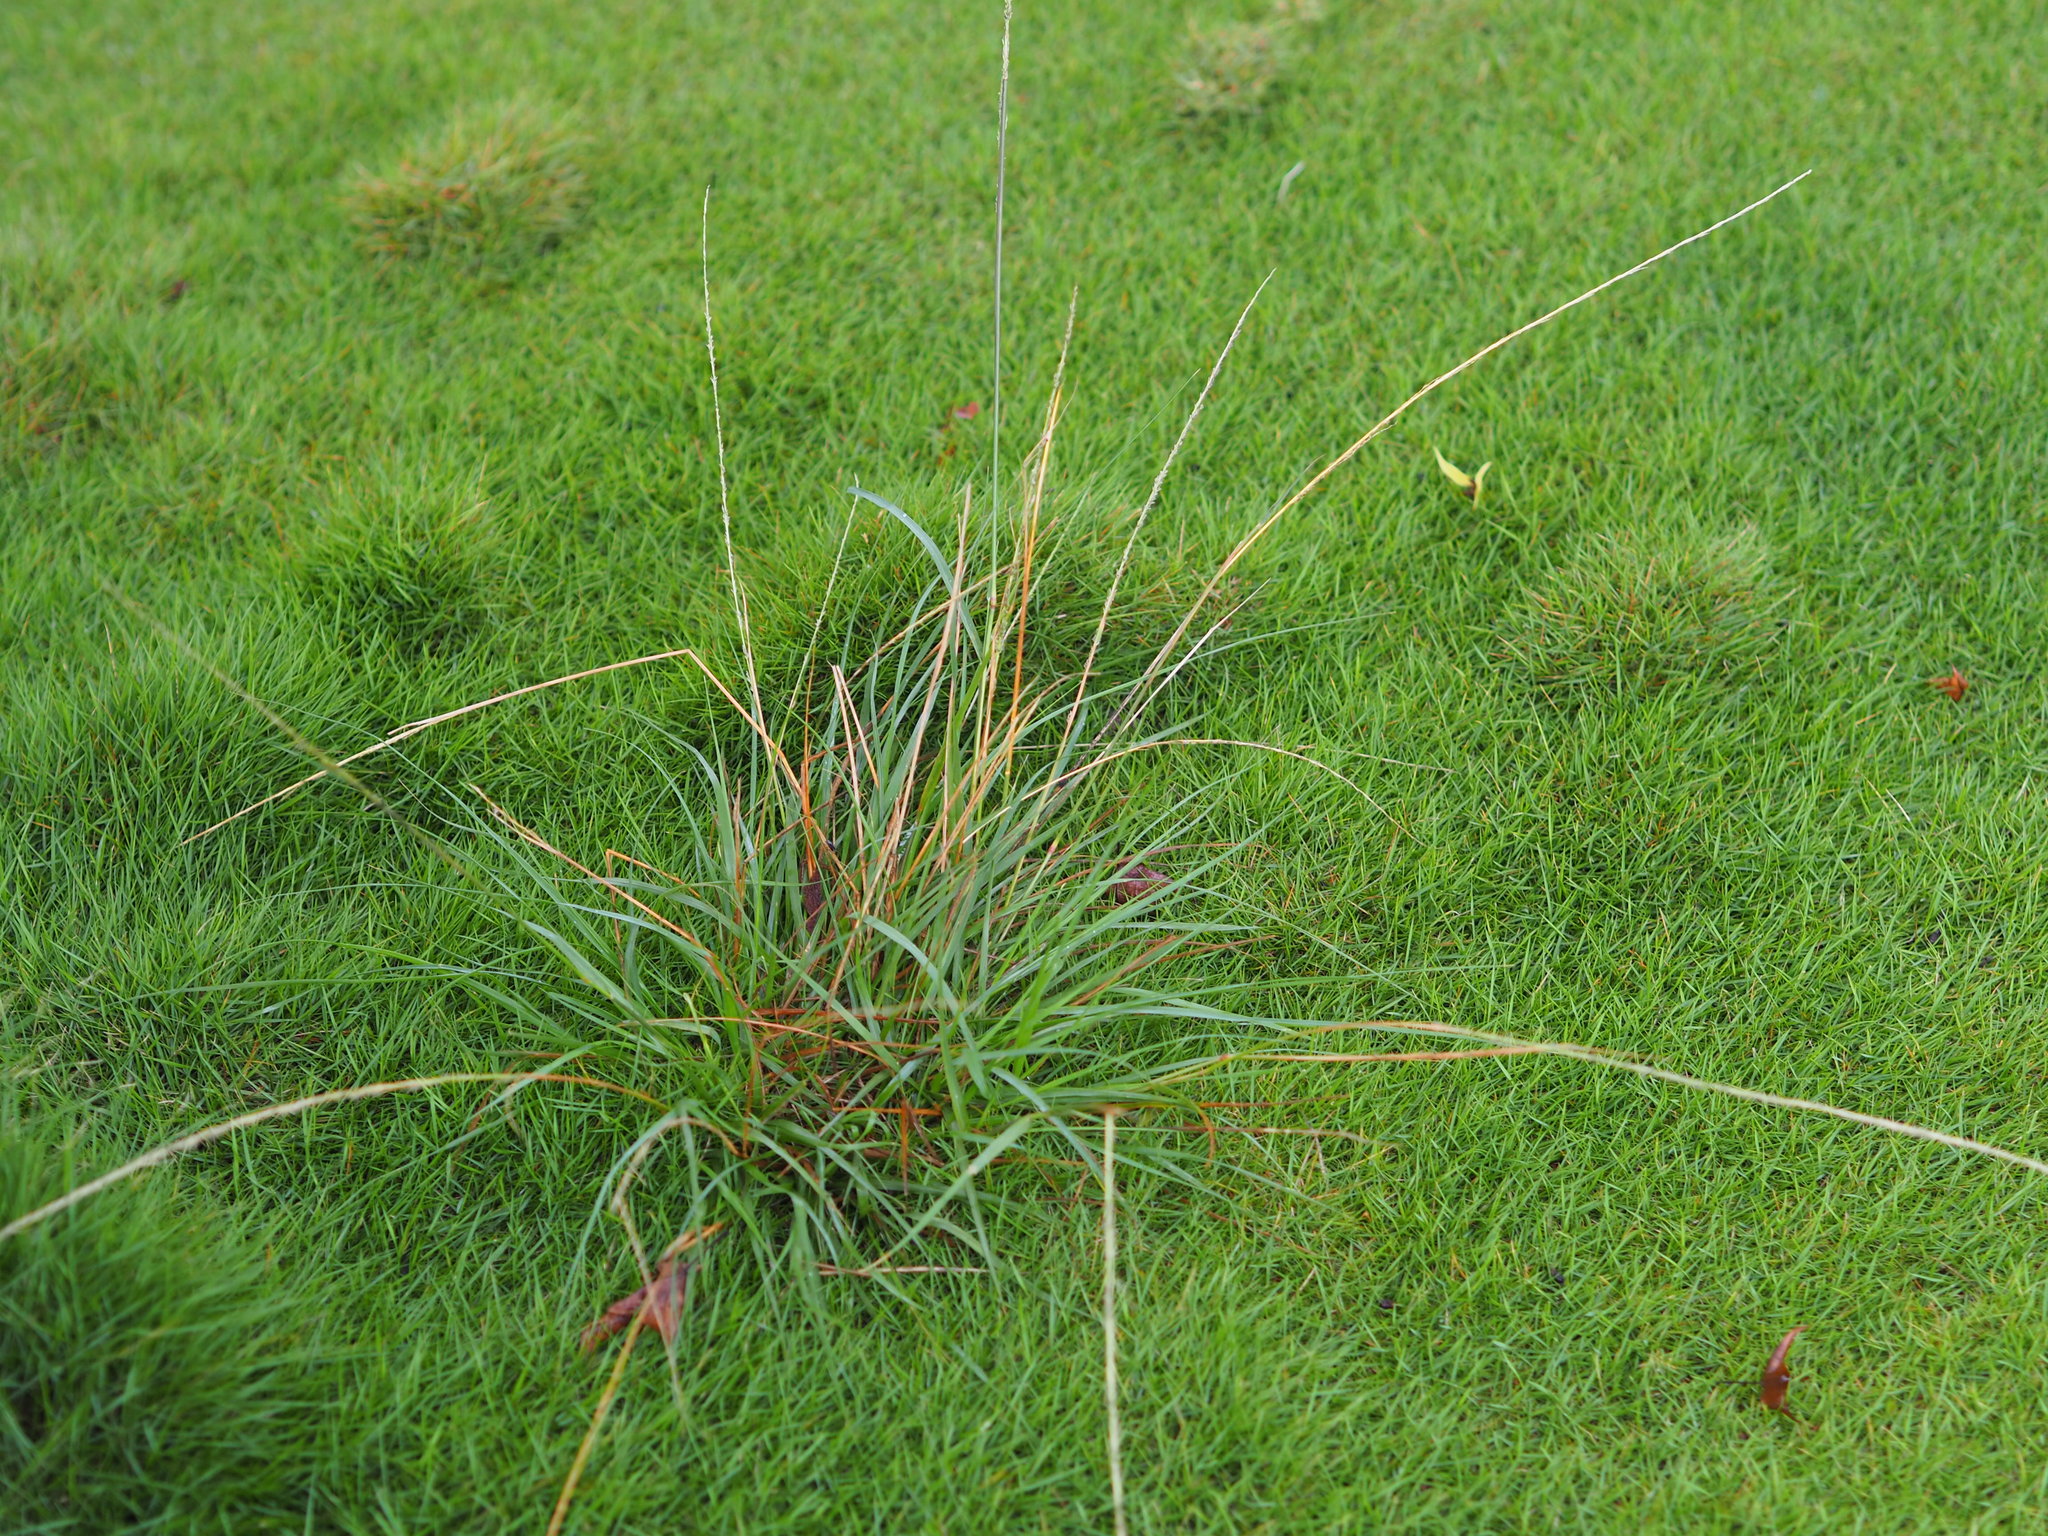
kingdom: Plantae
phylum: Tracheophyta
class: Liliopsida
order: Poales
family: Poaceae
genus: Sporobolus
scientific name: Sporobolus indicus
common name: Smut grass
